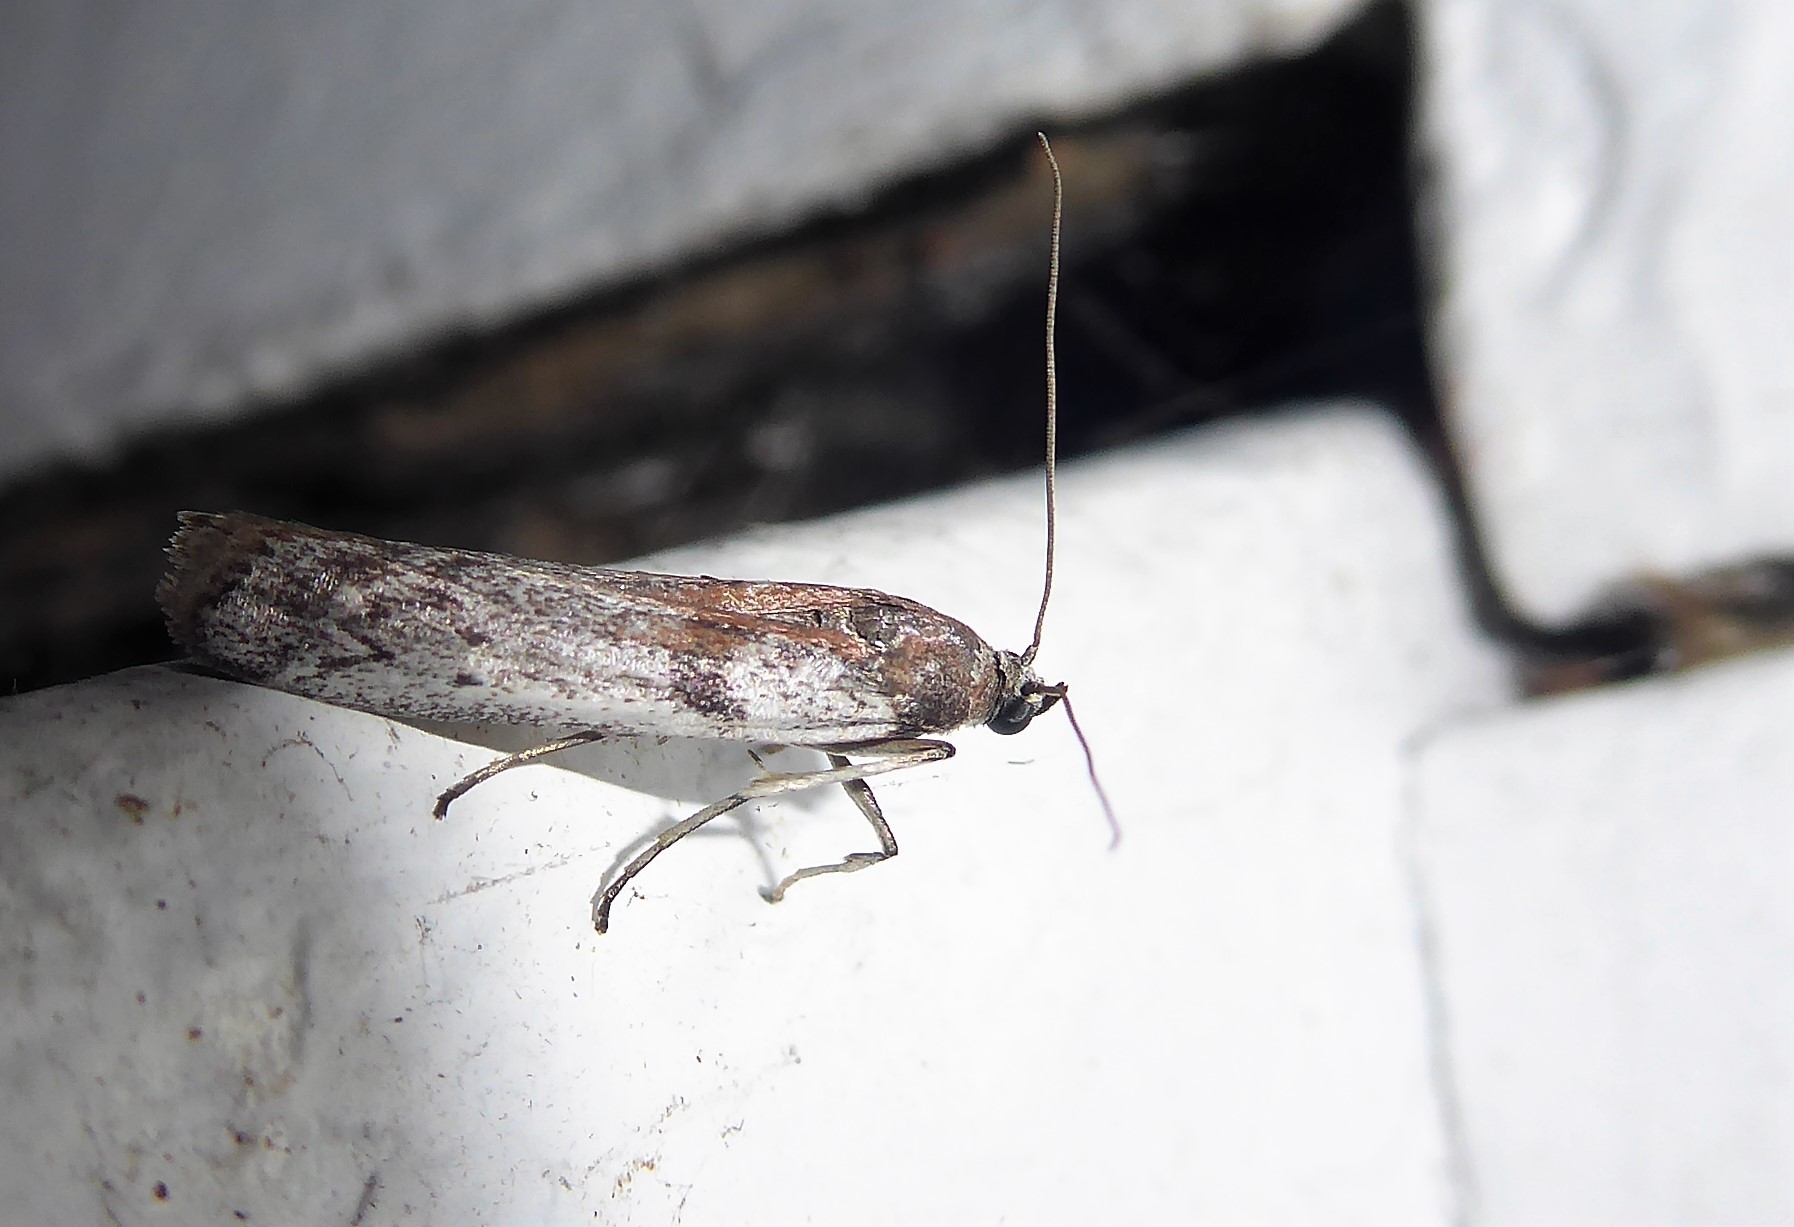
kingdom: Animalia
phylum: Arthropoda
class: Insecta
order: Lepidoptera
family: Pyralidae
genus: Patagoniodes
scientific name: Patagoniodes farinaria
